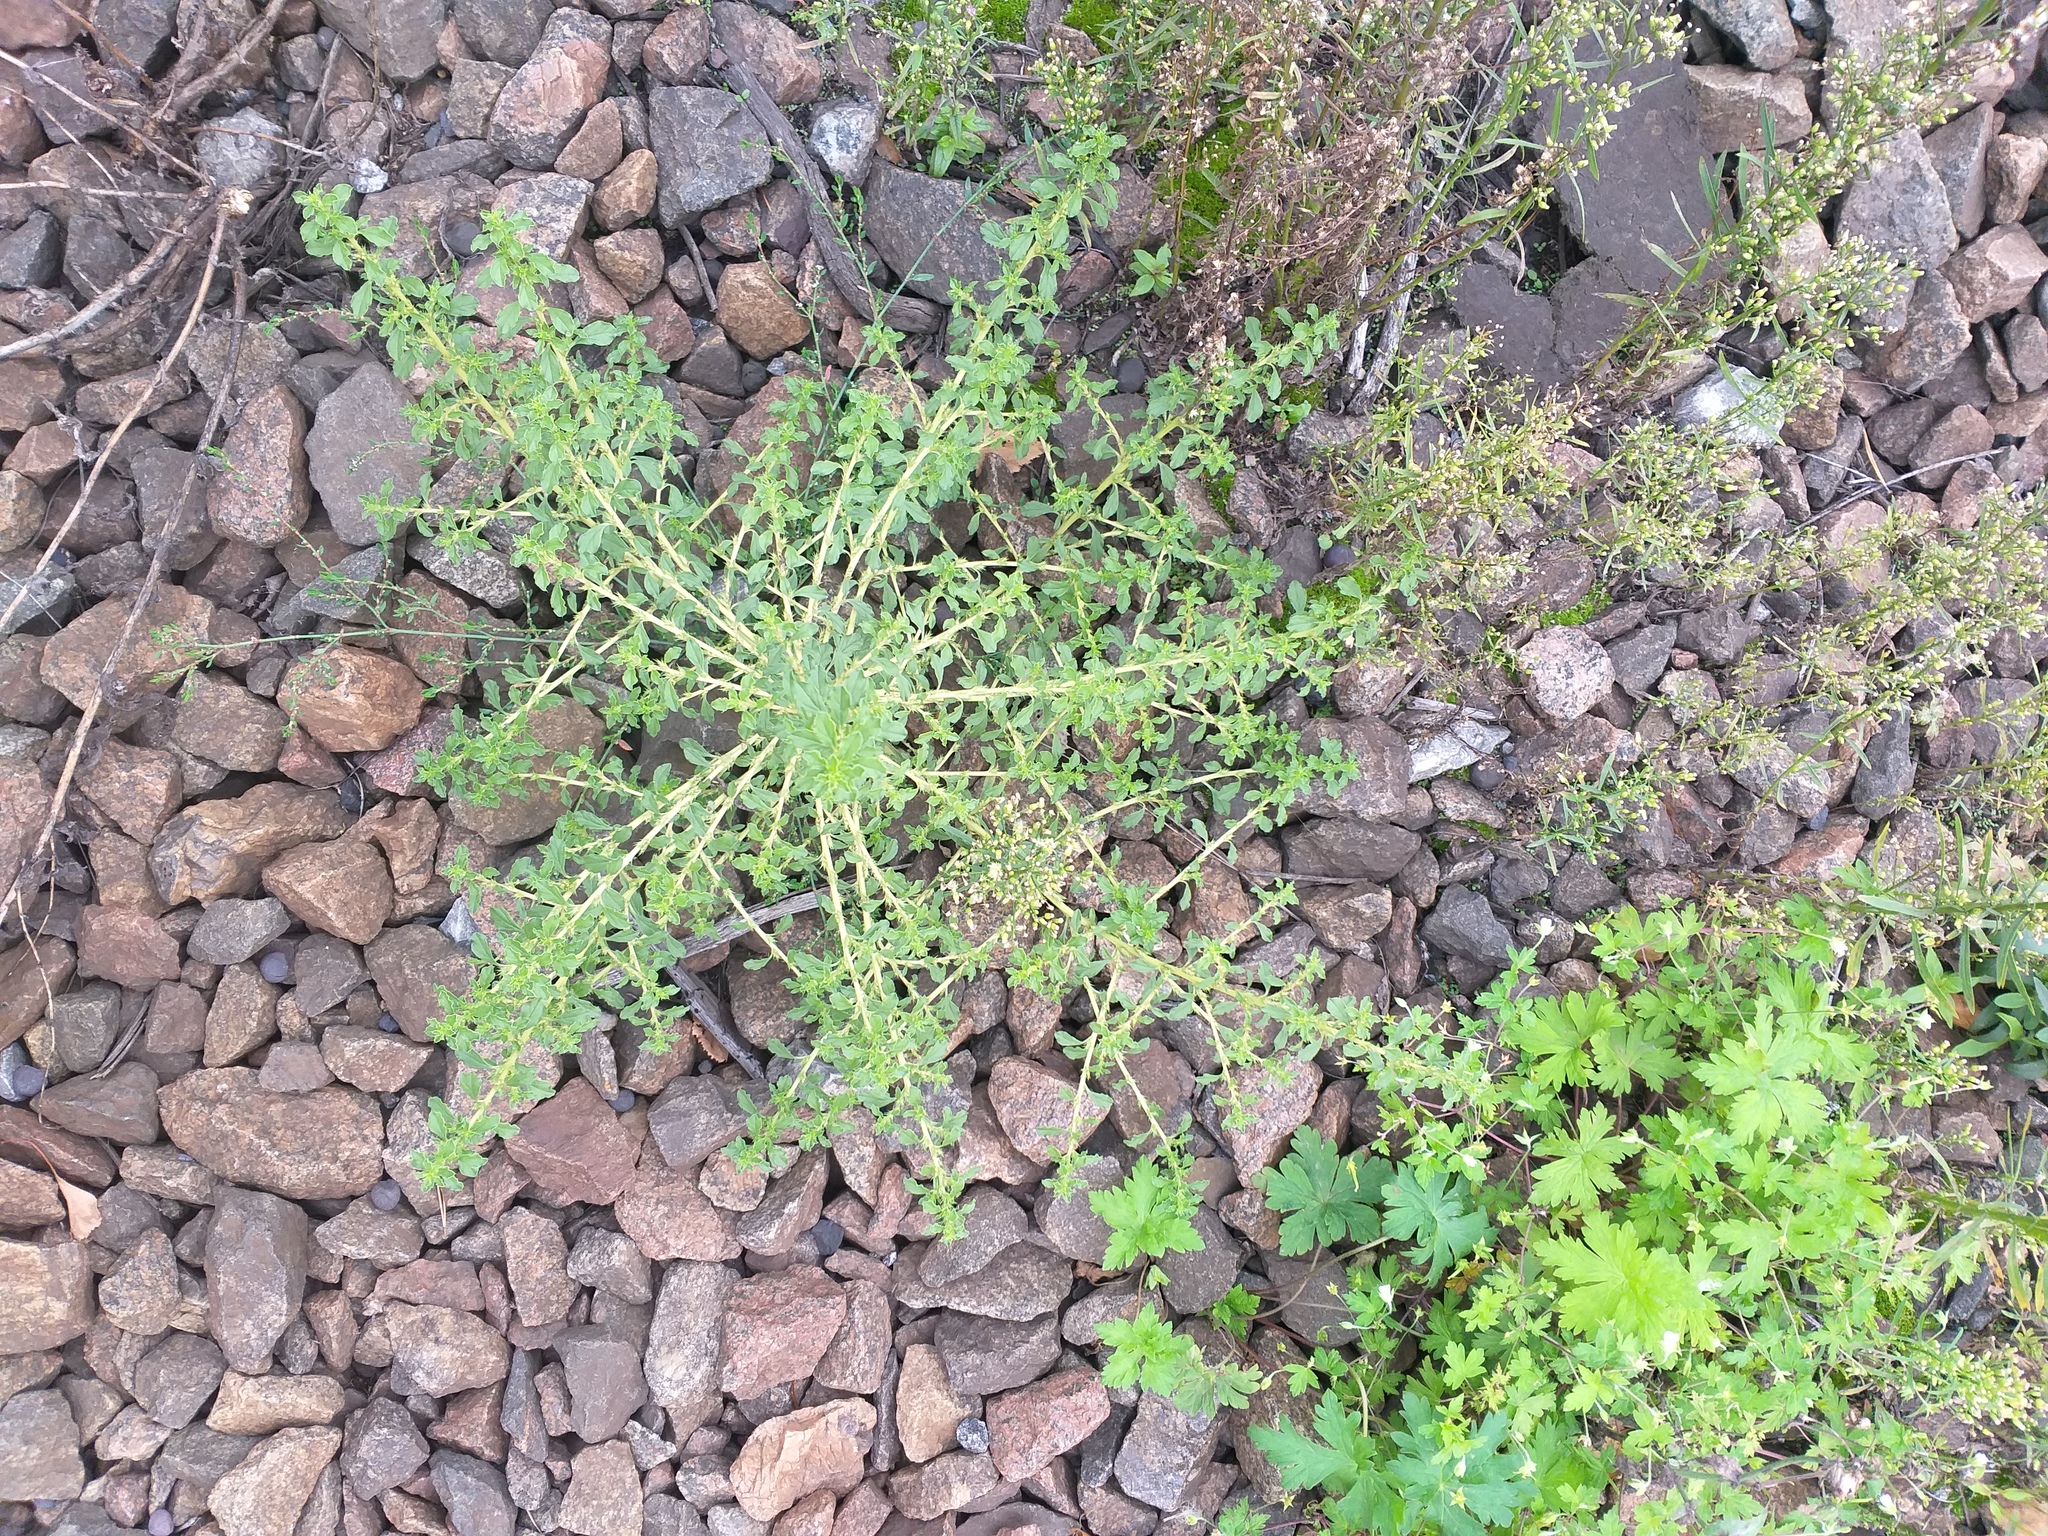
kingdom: Plantae
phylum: Tracheophyta
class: Magnoliopsida
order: Caryophyllales
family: Amaranthaceae
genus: Amaranthus
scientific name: Amaranthus albus
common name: White pigweed
